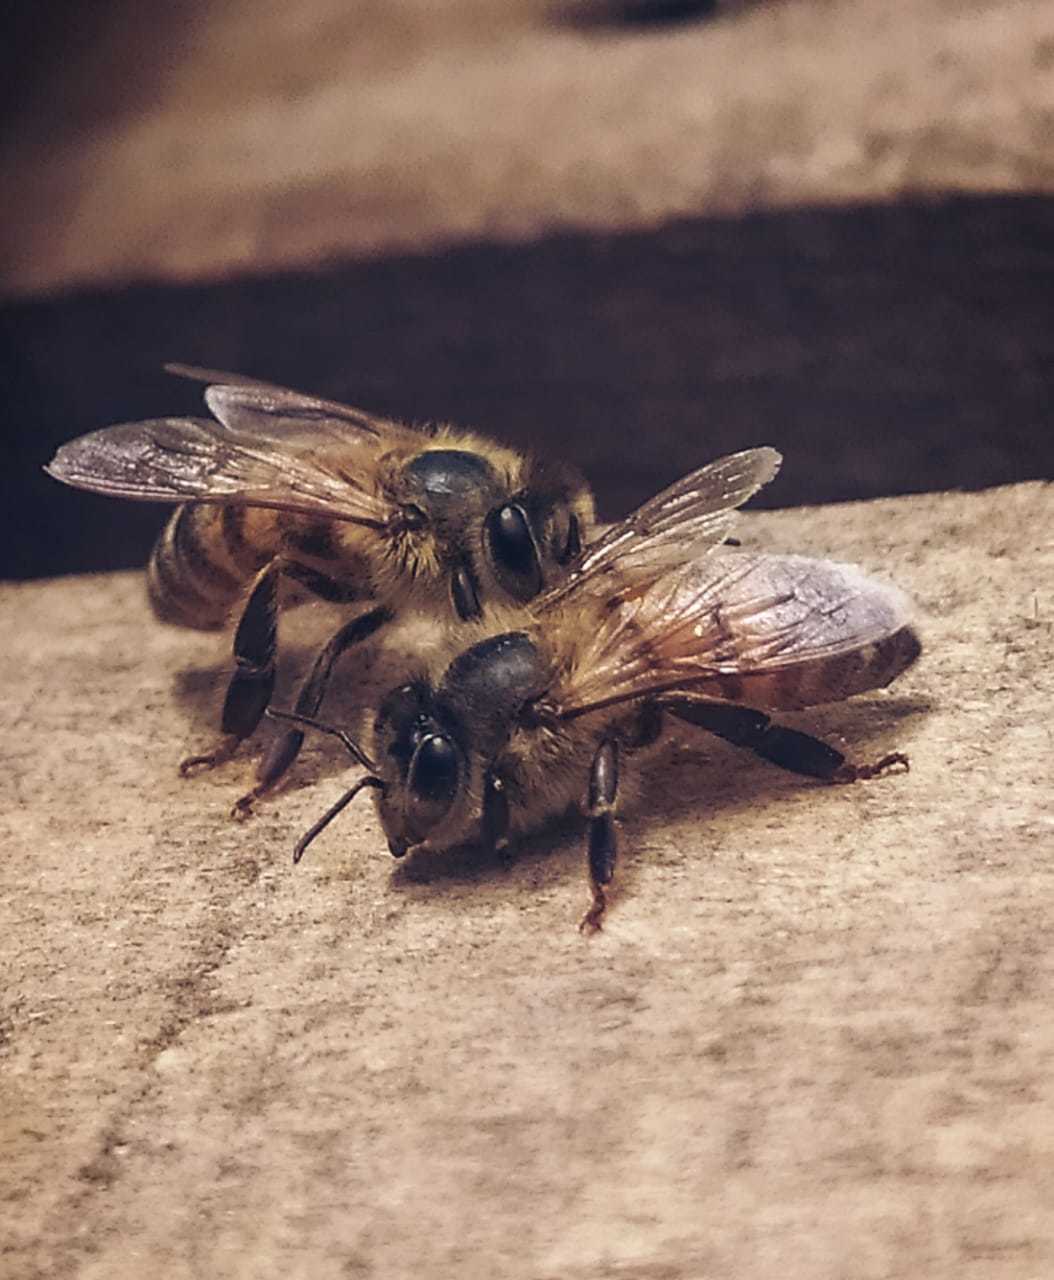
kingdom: Animalia
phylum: Arthropoda
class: Insecta
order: Hymenoptera
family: Apidae
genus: Apis
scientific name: Apis mellifera
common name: Honey bee
